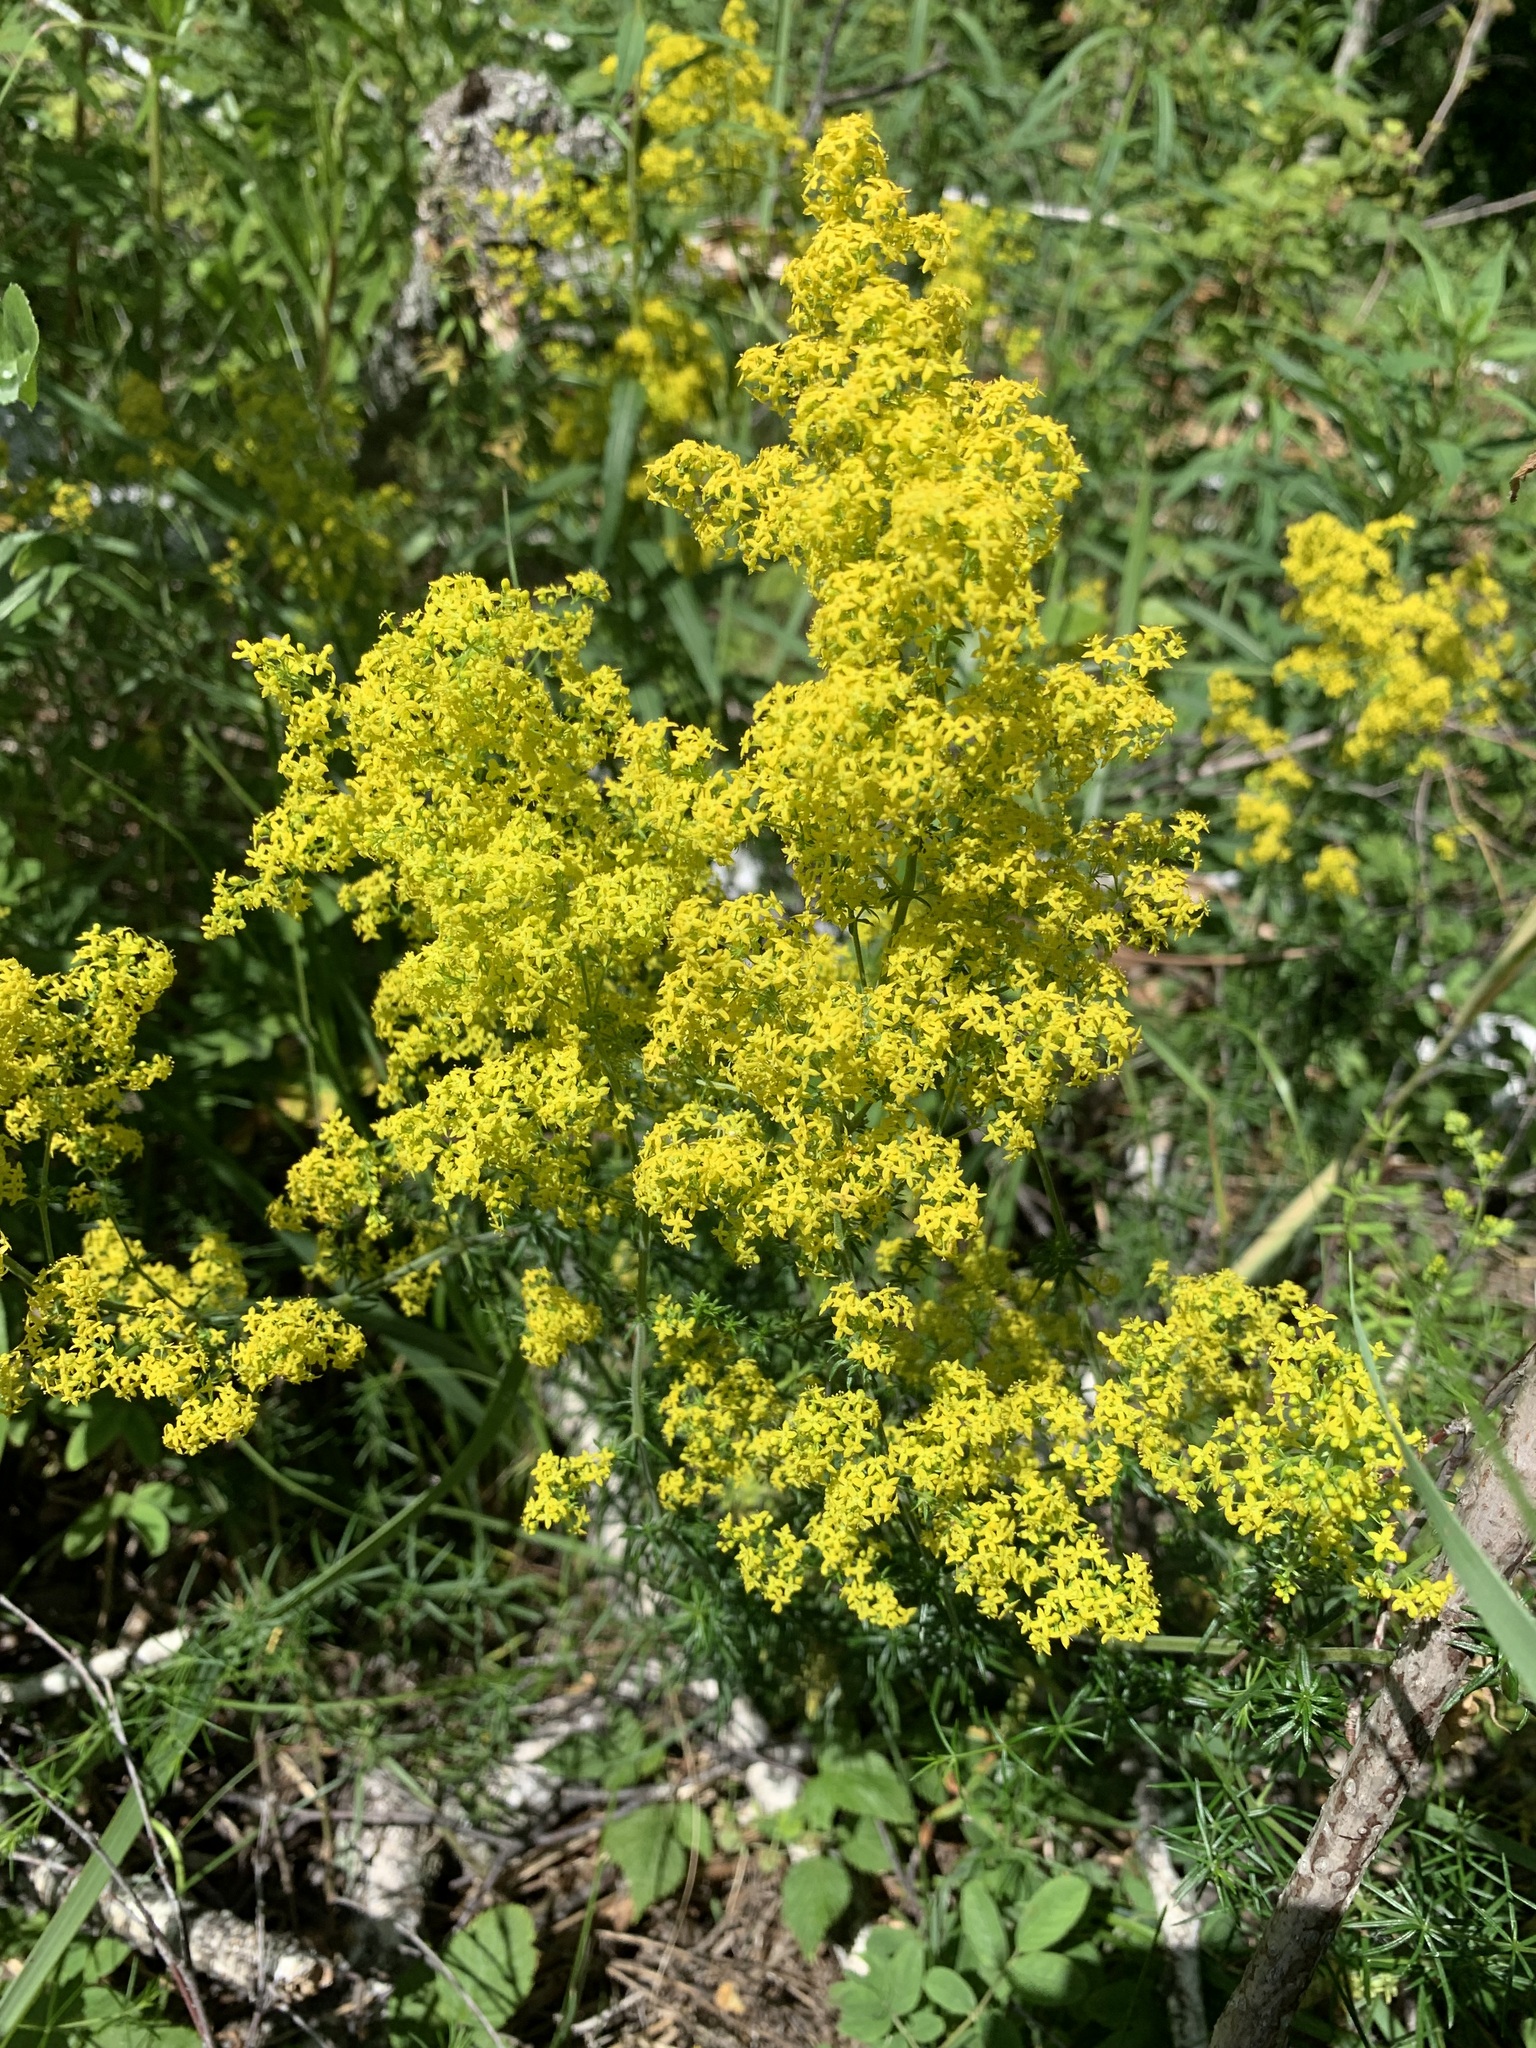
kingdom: Plantae
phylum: Tracheophyta
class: Magnoliopsida
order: Gentianales
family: Rubiaceae
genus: Galium
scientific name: Galium verum
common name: Lady's bedstraw
